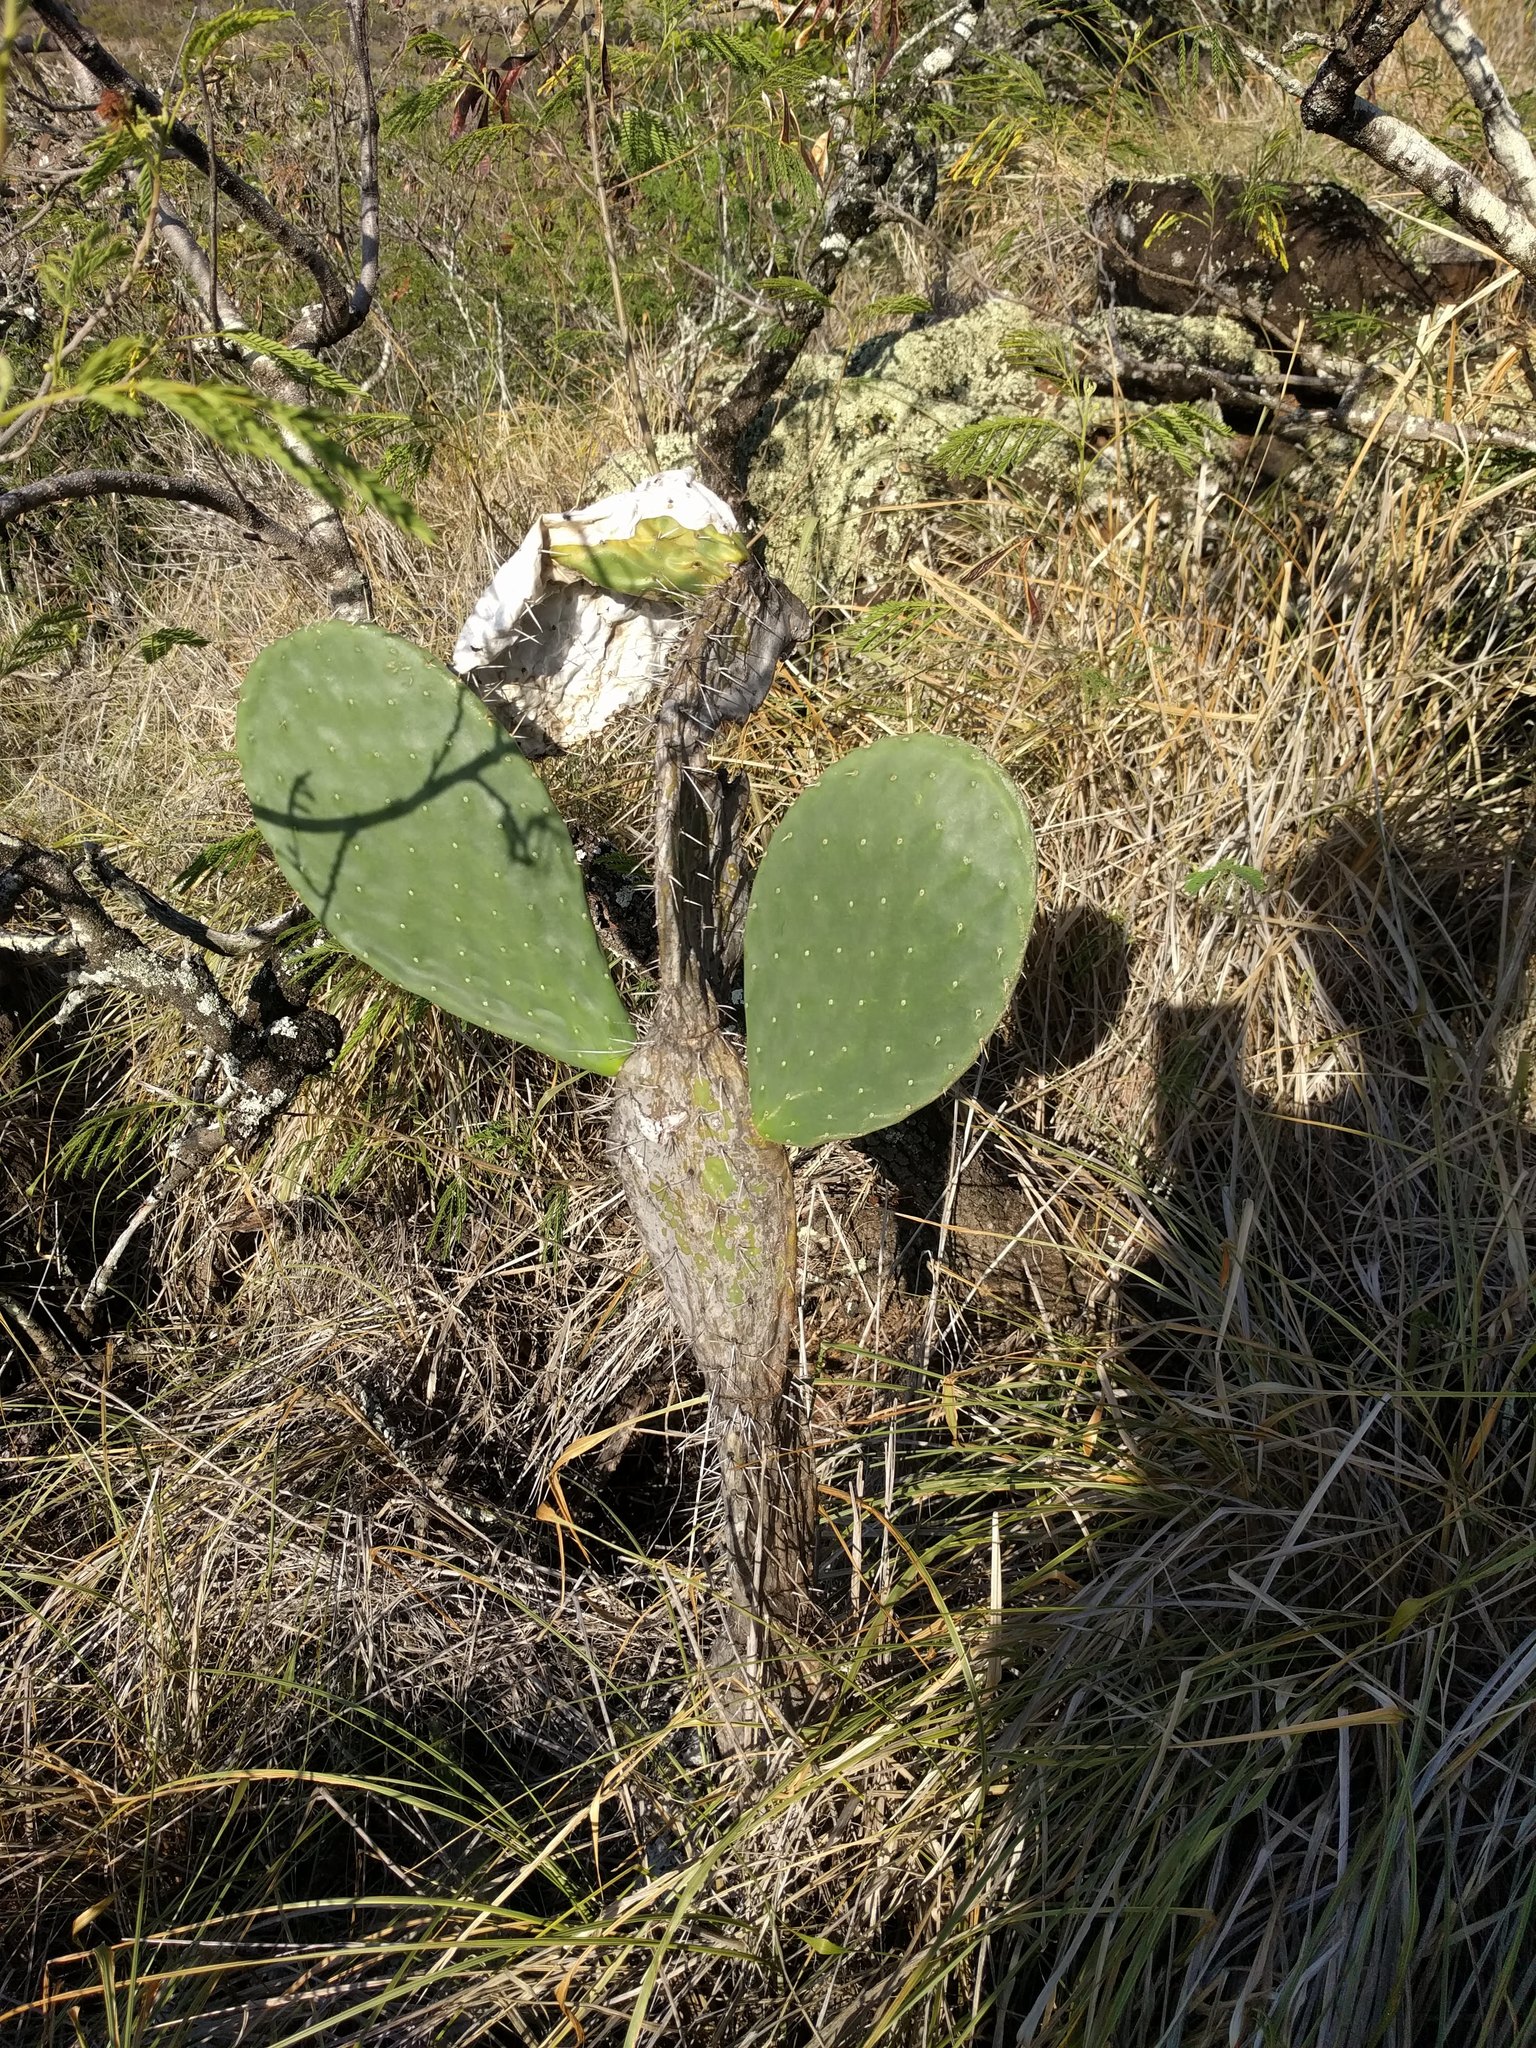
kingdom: Plantae
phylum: Tracheophyta
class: Magnoliopsida
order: Caryophyllales
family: Cactaceae
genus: Opuntia
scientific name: Opuntia ficus-indica
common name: Barbary fig
